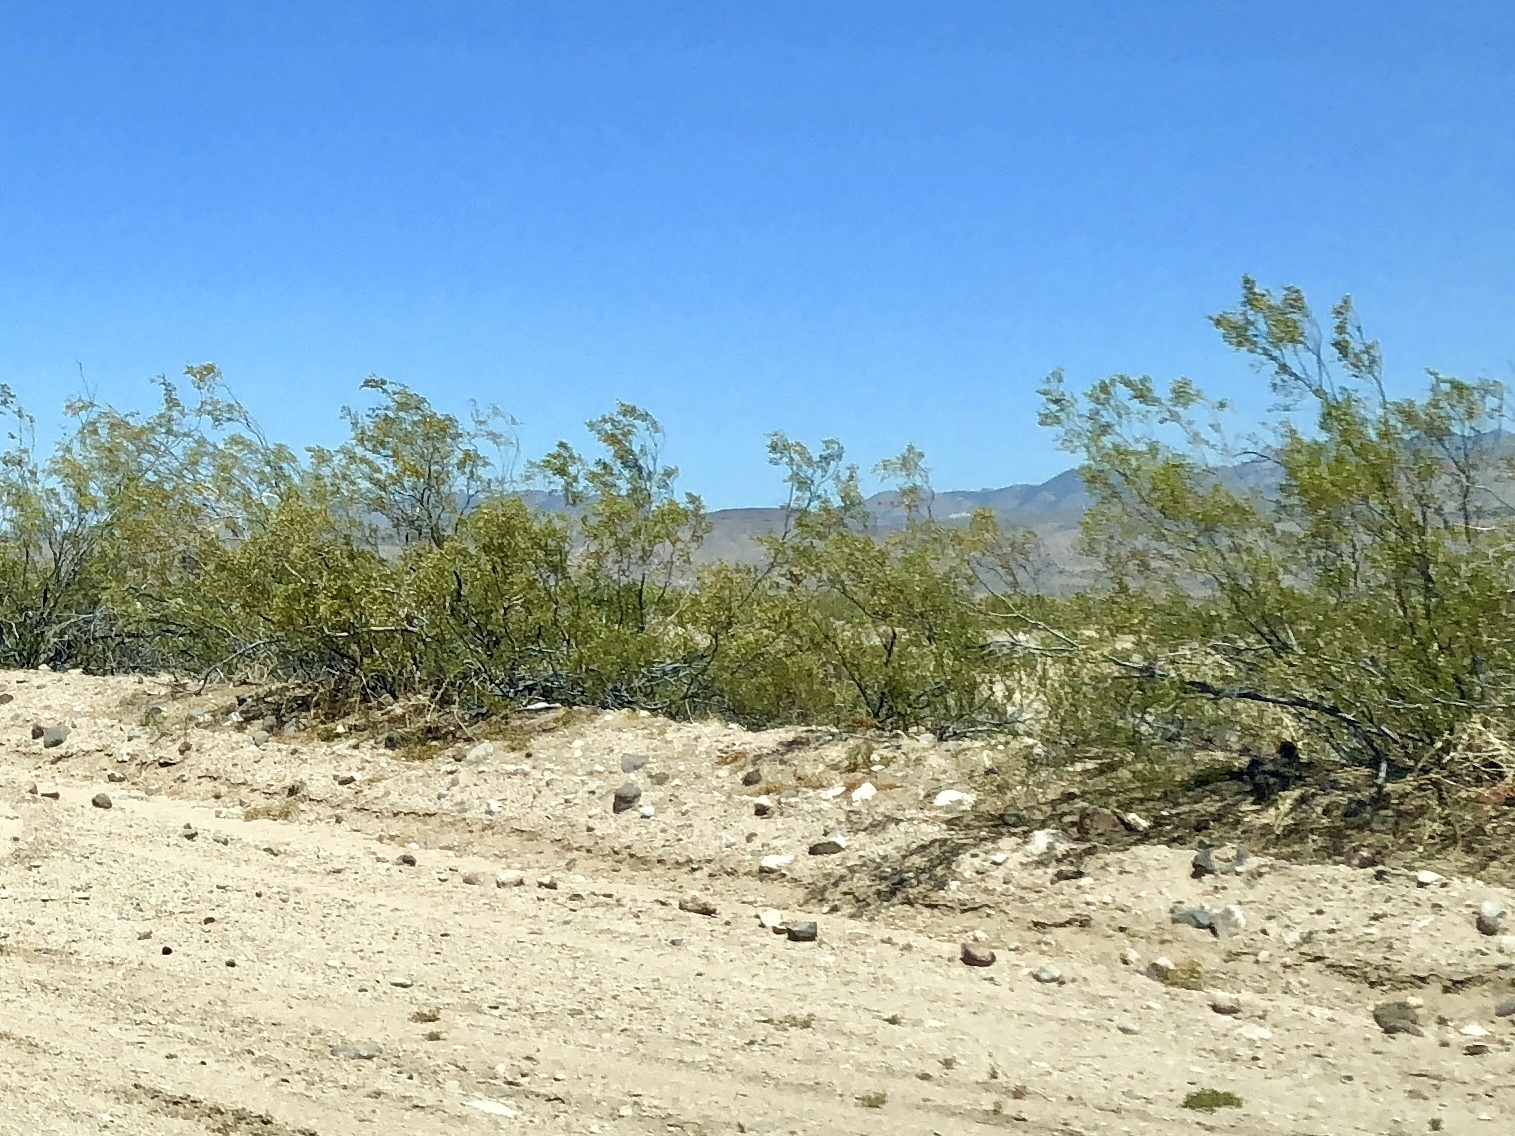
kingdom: Plantae
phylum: Tracheophyta
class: Magnoliopsida
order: Zygophyllales
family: Zygophyllaceae
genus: Larrea
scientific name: Larrea tridentata
